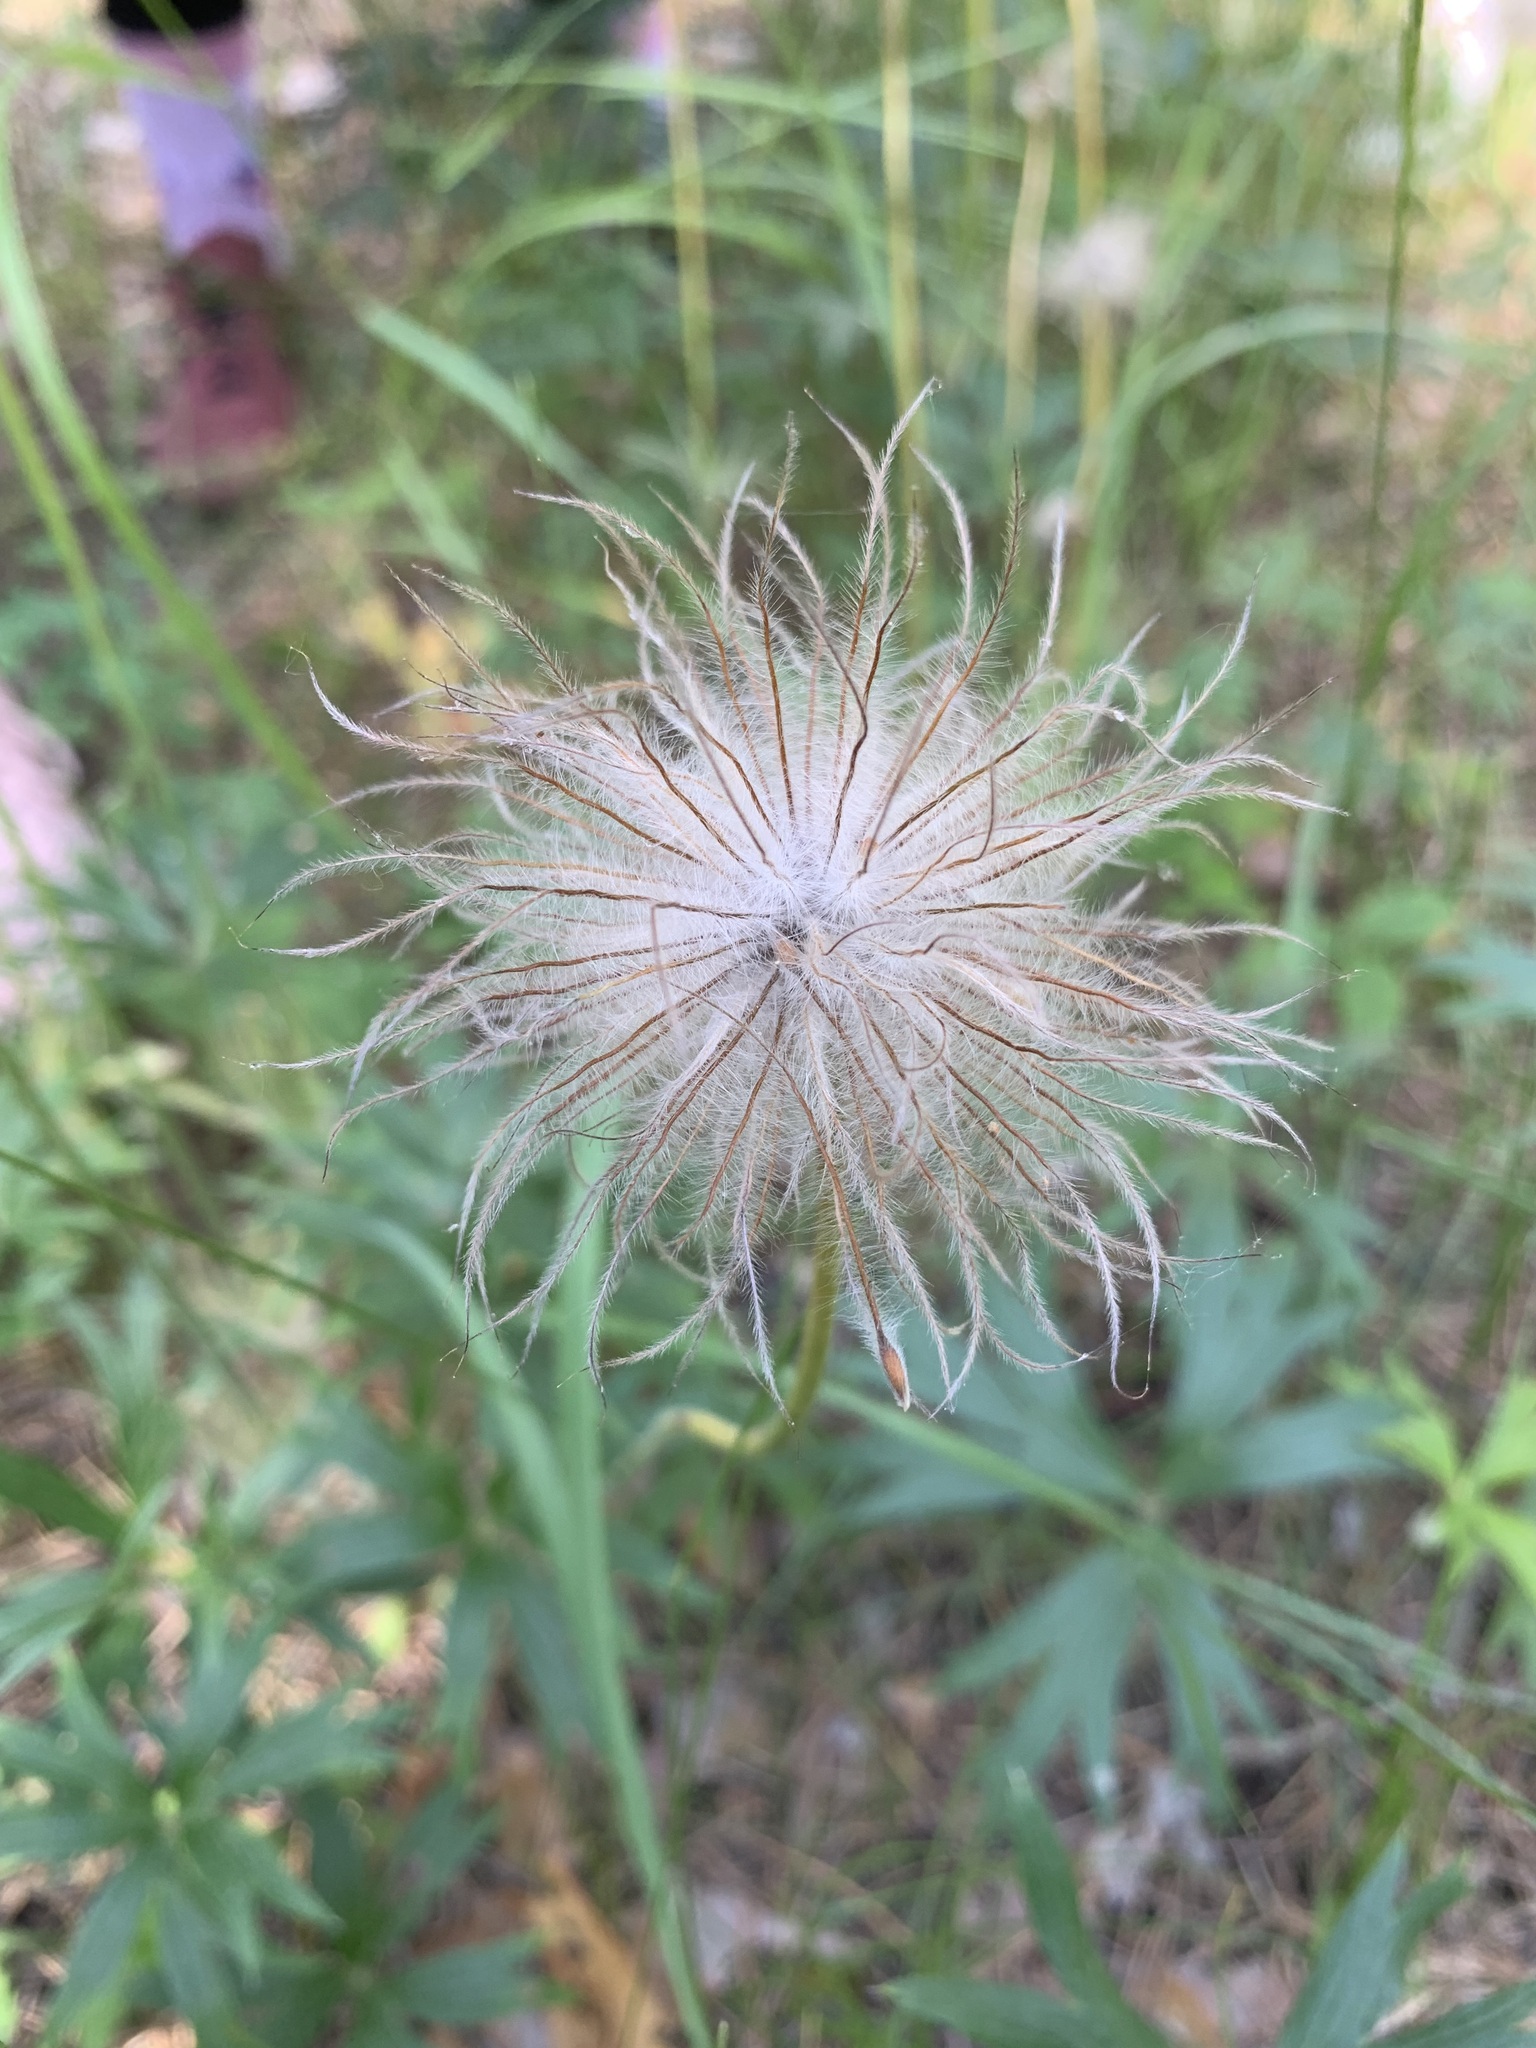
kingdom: Plantae
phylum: Tracheophyta
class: Magnoliopsida
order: Ranunculales
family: Ranunculaceae
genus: Pulsatilla
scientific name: Pulsatilla patens
